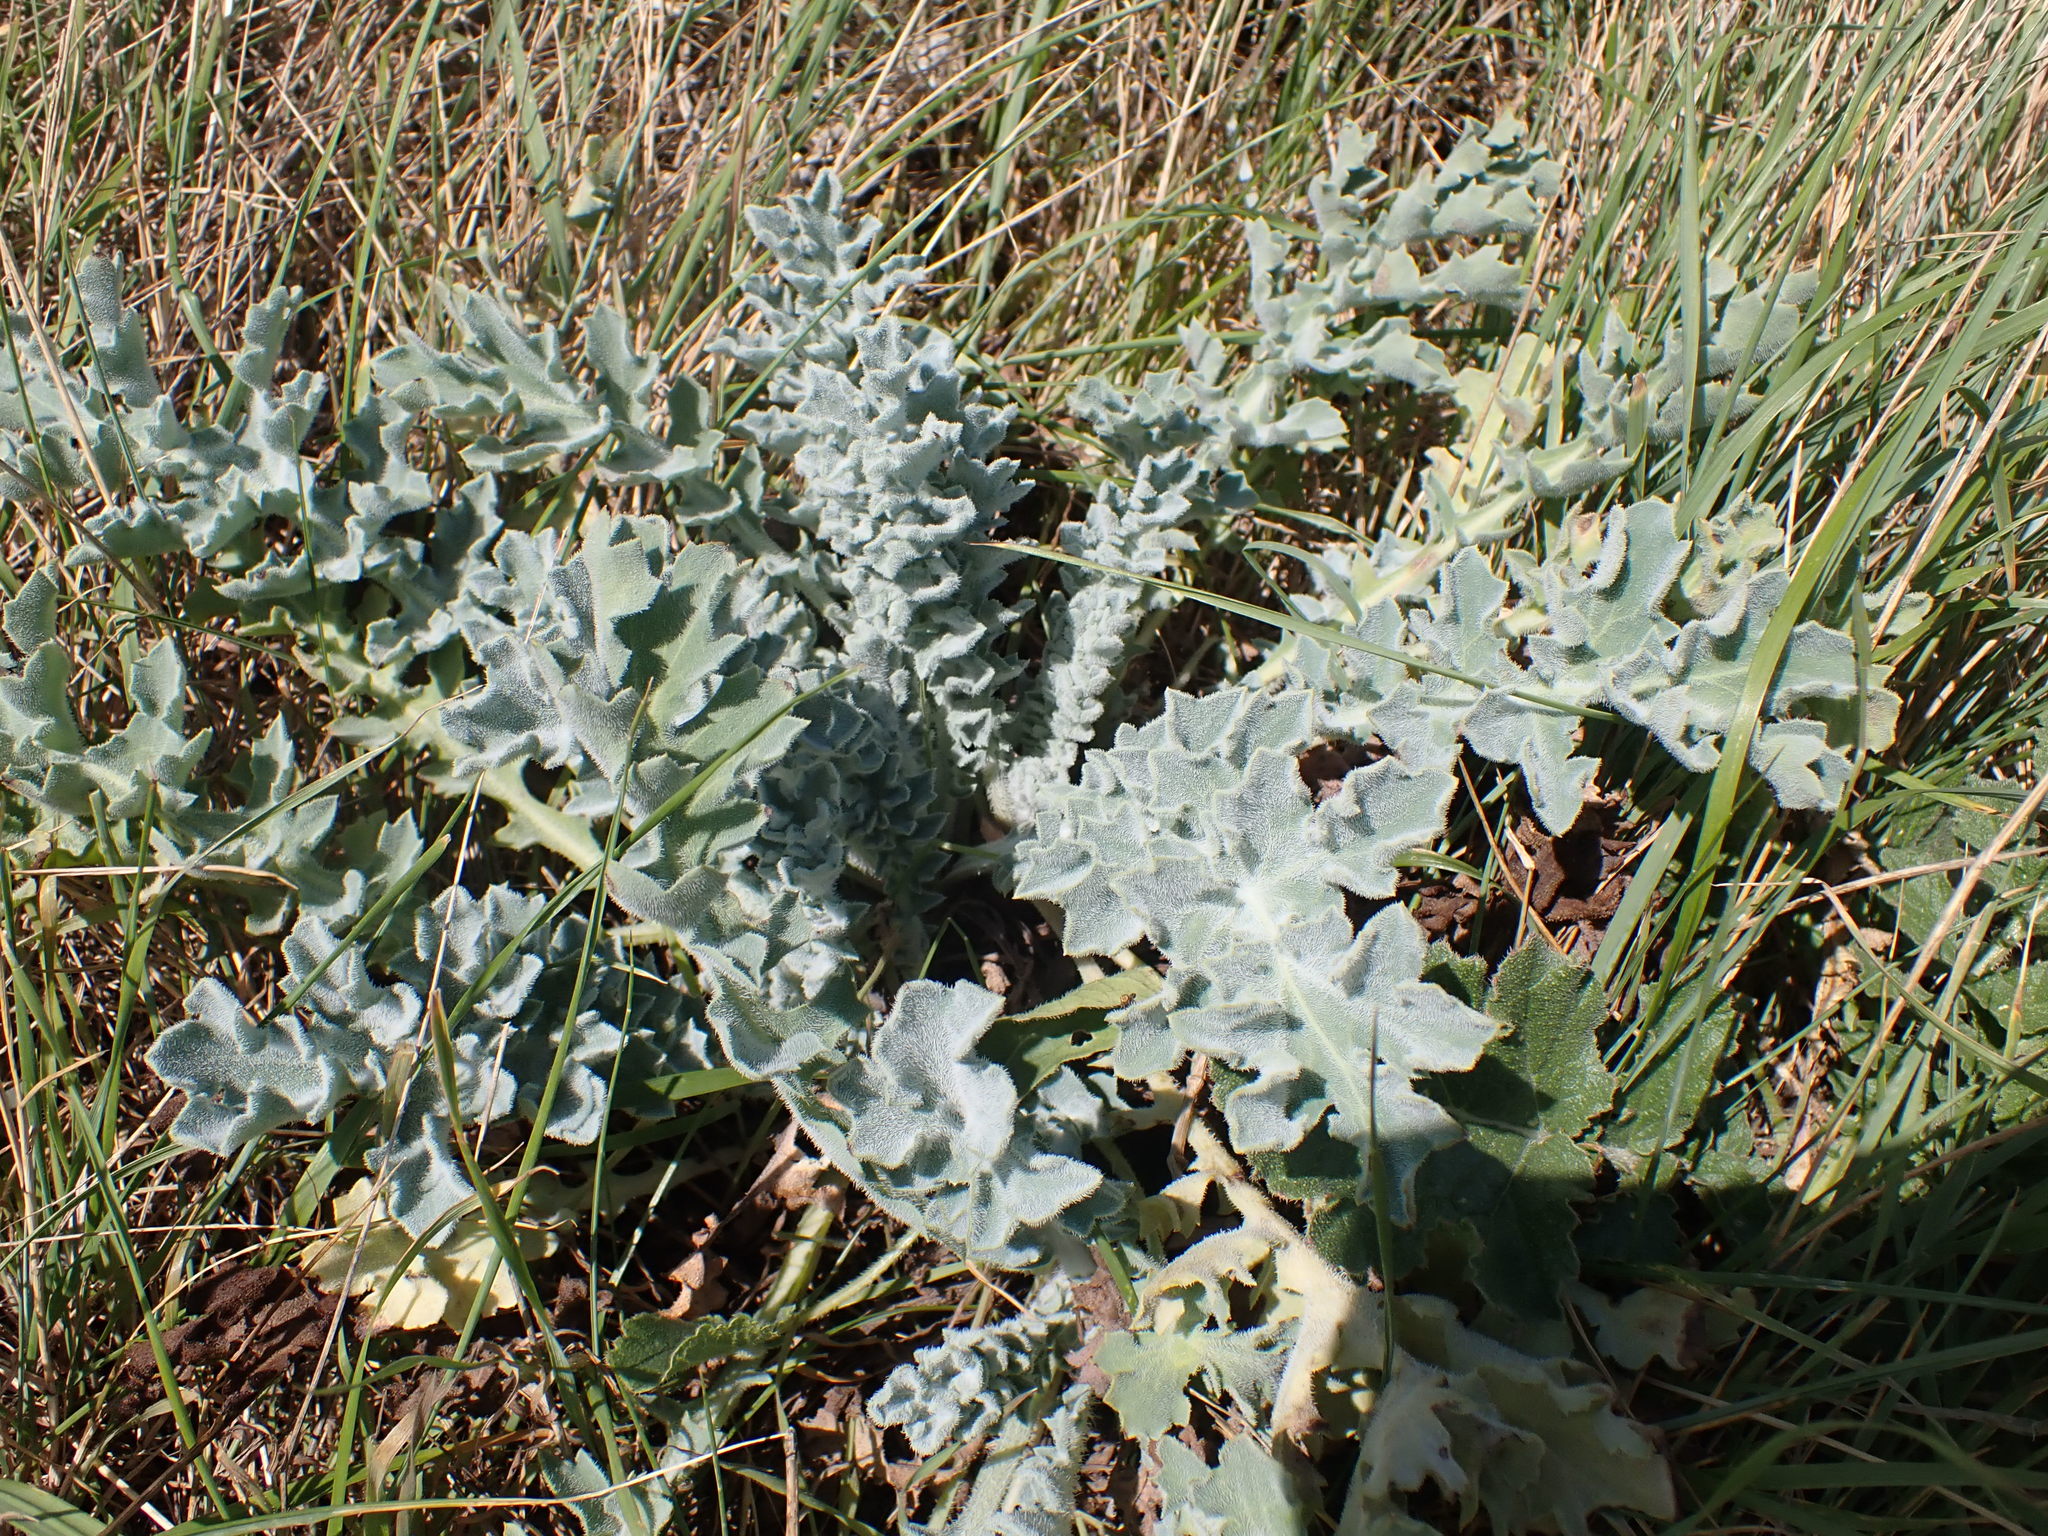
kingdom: Plantae
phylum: Tracheophyta
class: Magnoliopsida
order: Ranunculales
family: Papaveraceae
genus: Glaucium
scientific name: Glaucium flavum
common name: Yellow horned-poppy
